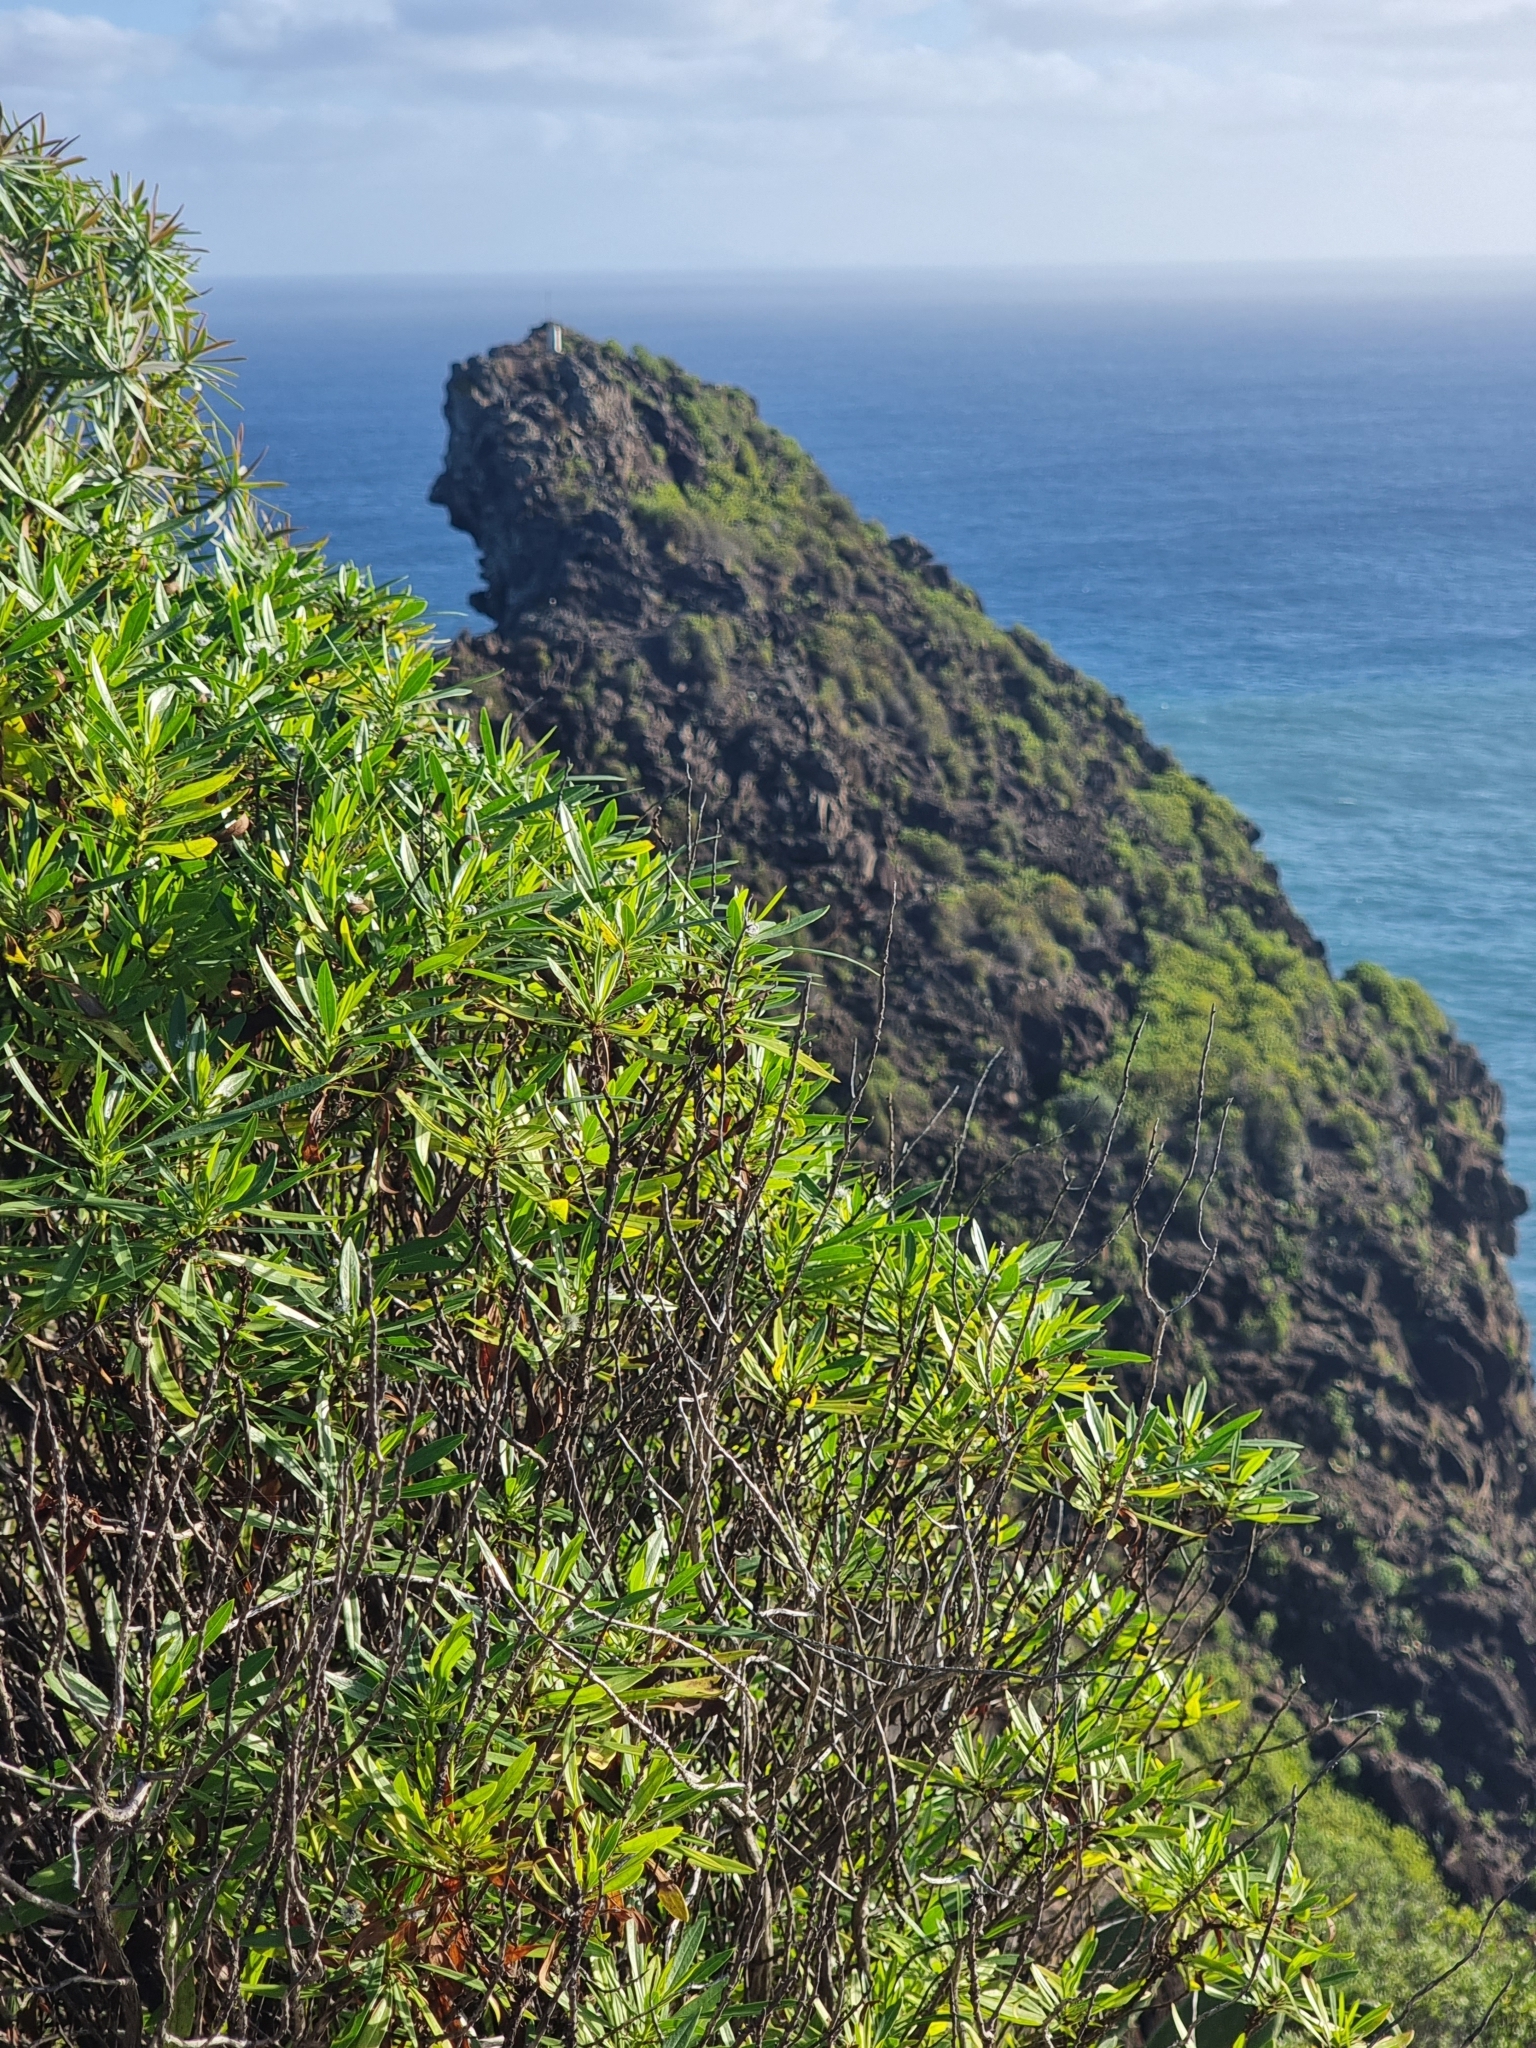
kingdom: Plantae
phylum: Tracheophyta
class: Magnoliopsida
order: Lamiales
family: Plantaginaceae
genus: Globularia
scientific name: Globularia salicina
